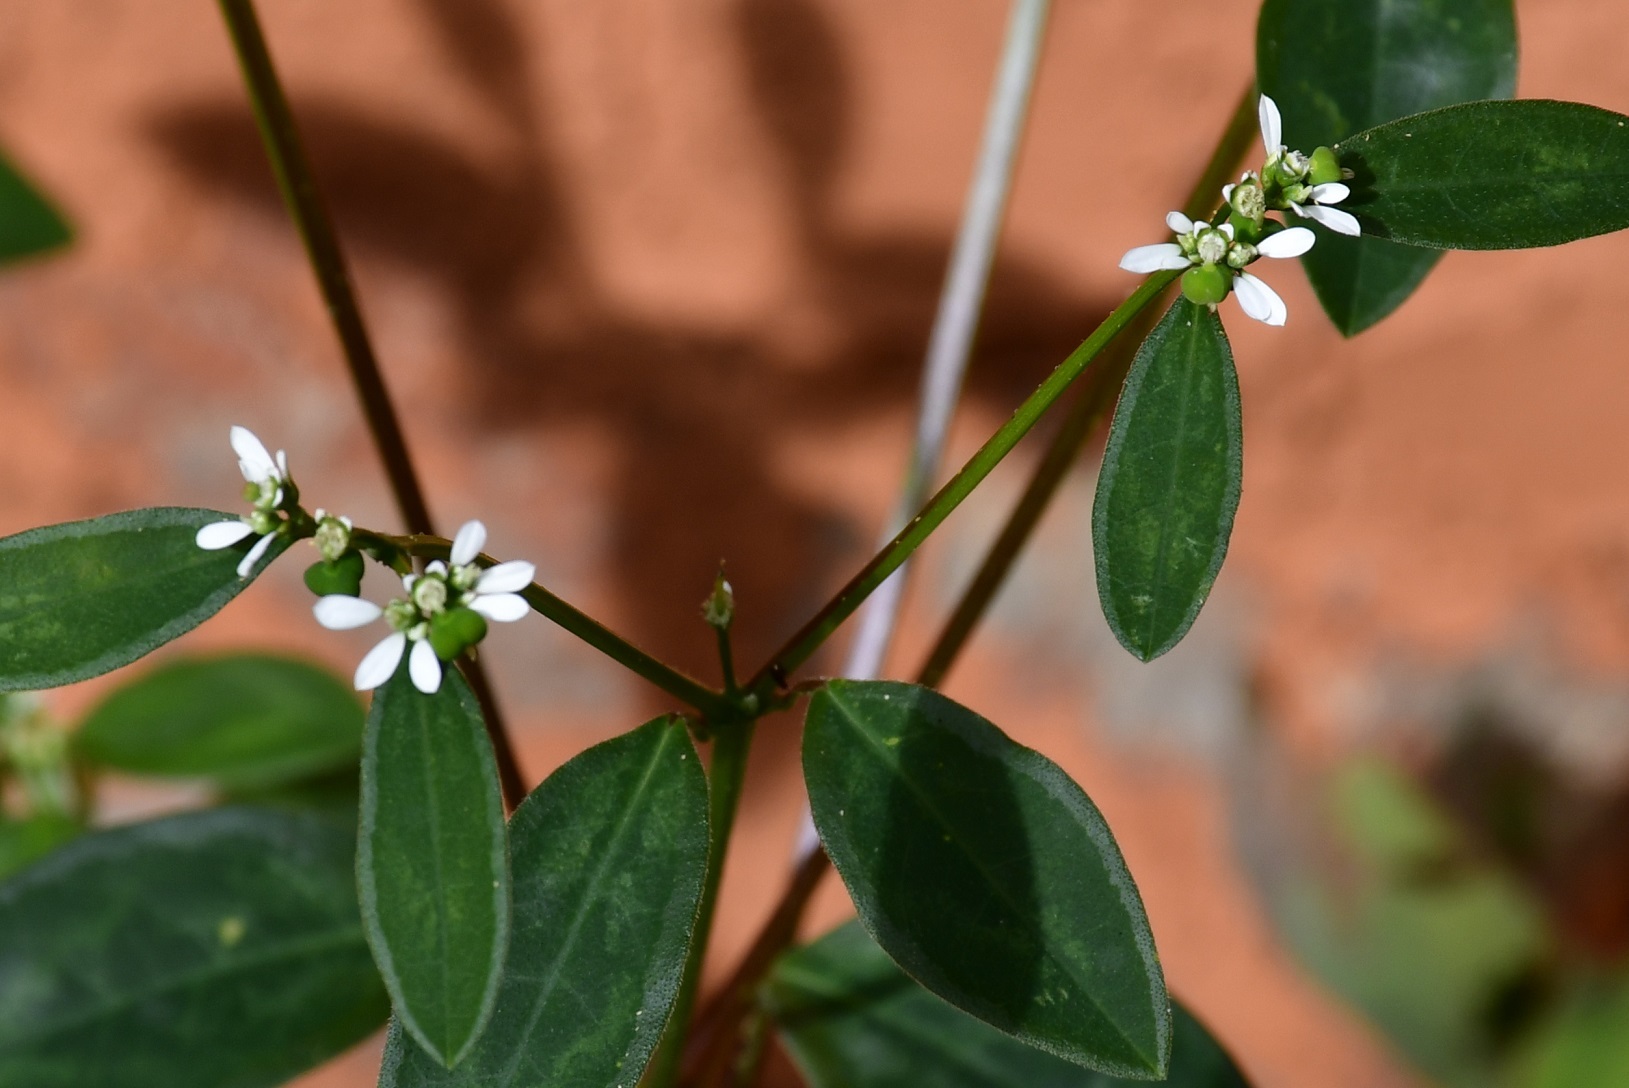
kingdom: Plantae
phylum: Tracheophyta
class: Magnoliopsida
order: Malpighiales
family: Euphorbiaceae
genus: Euphorbia
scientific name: Euphorbia graminea
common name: Grassleaf spurge
